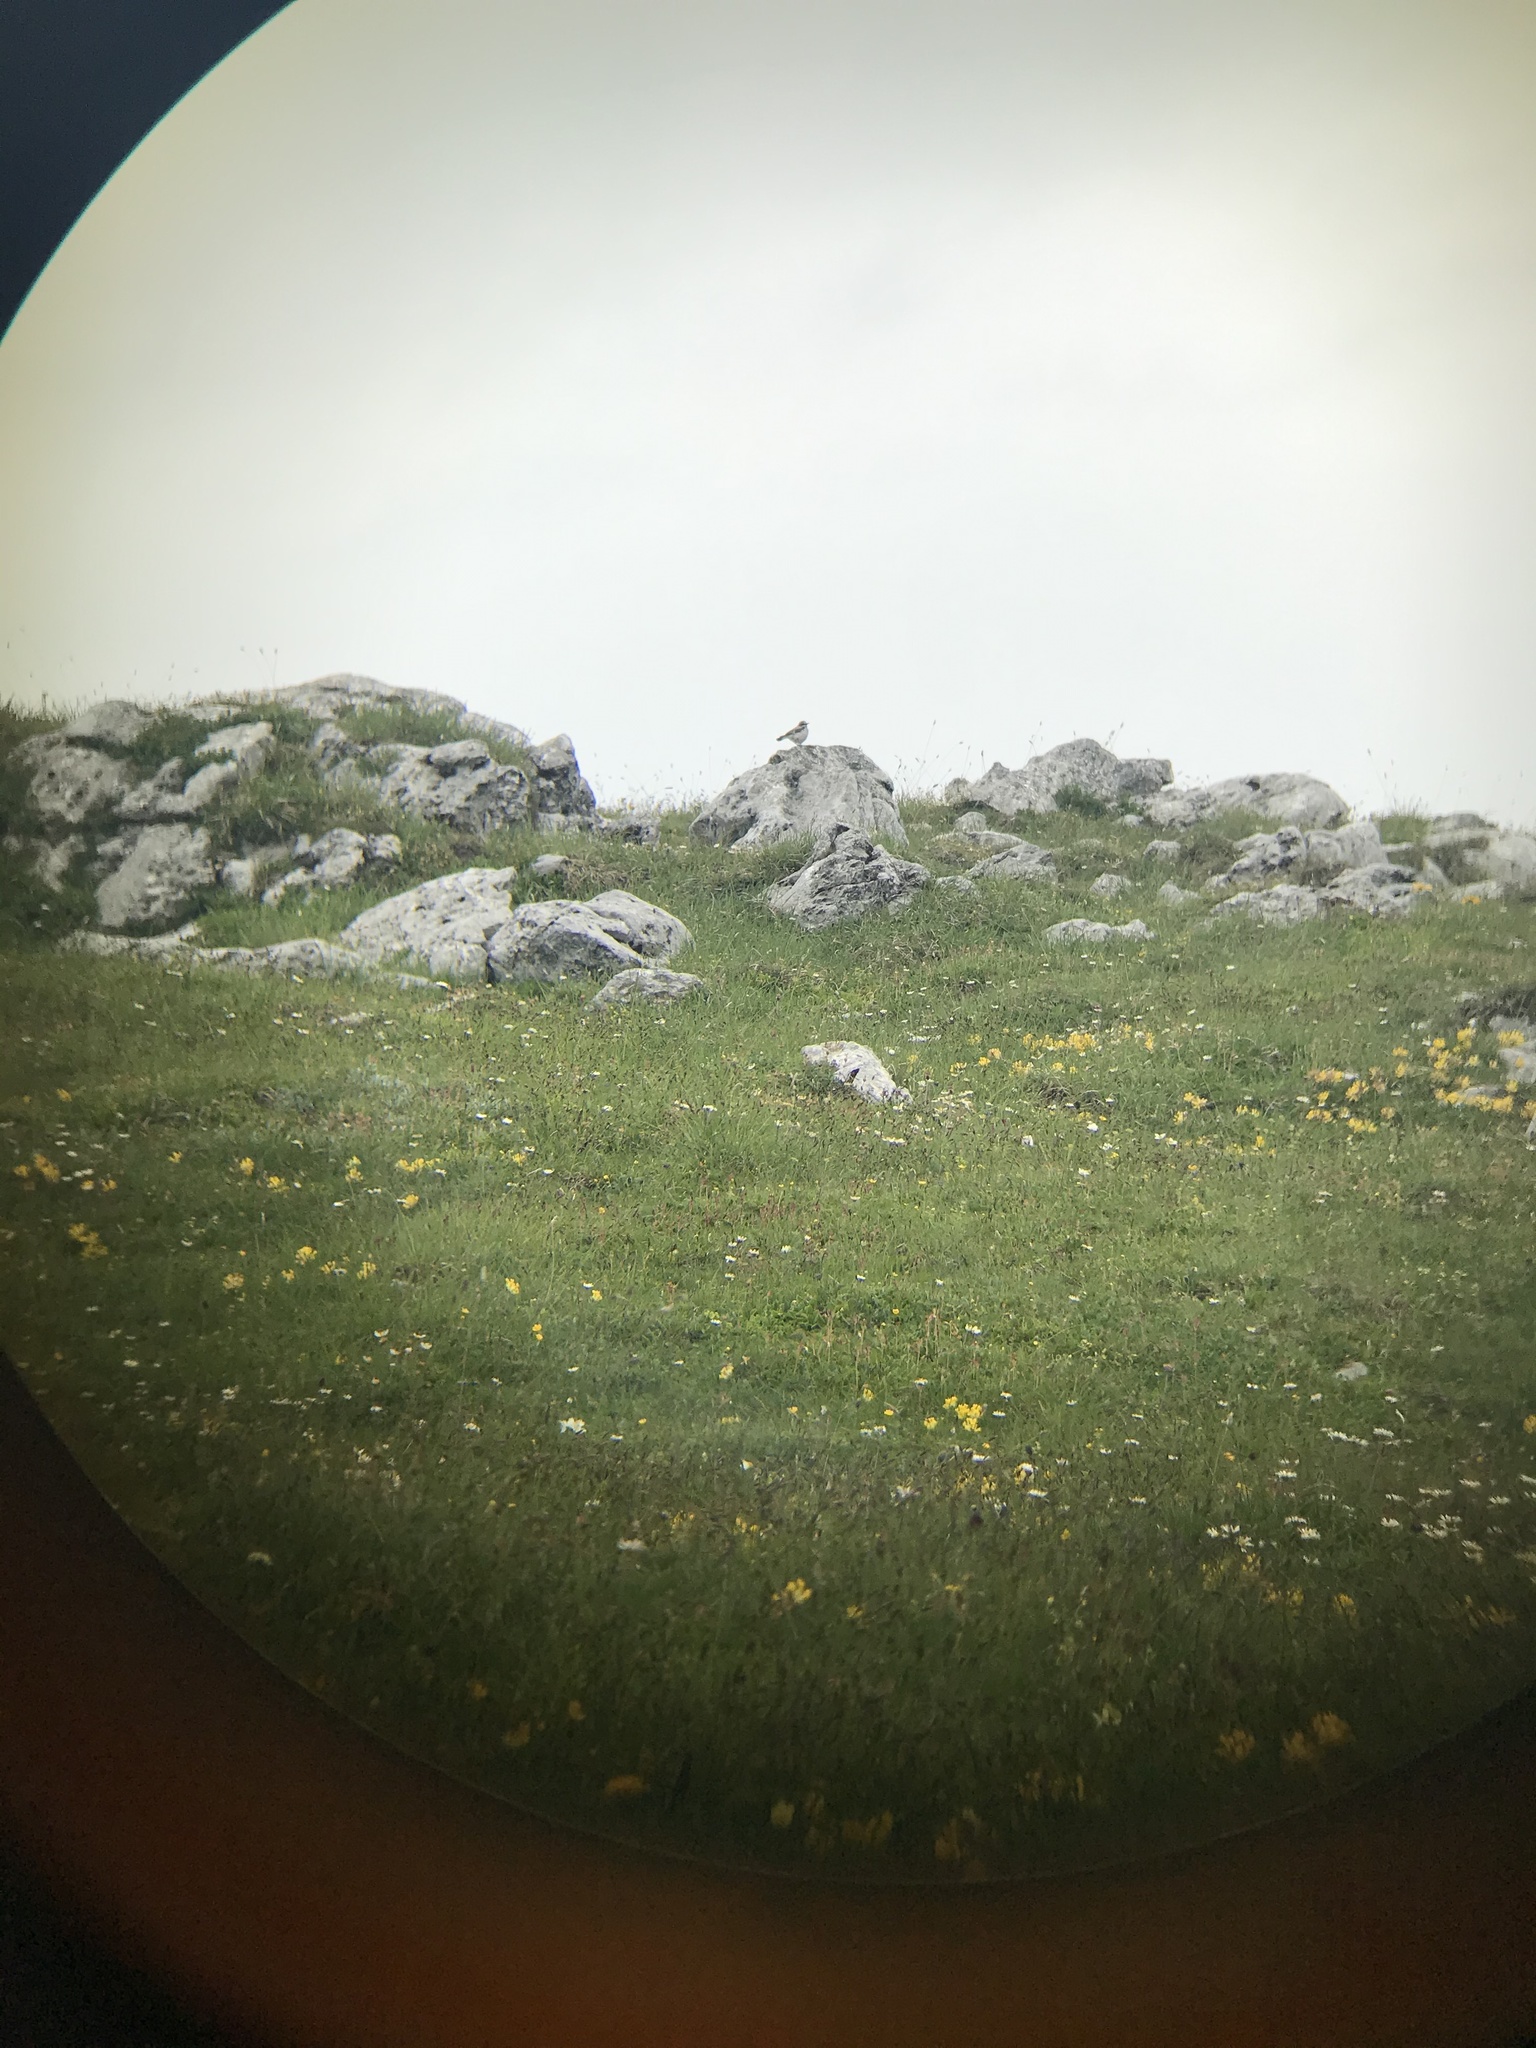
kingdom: Animalia
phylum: Chordata
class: Aves
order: Passeriformes
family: Muscicapidae
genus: Oenanthe
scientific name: Oenanthe oenanthe
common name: Northern wheatear
